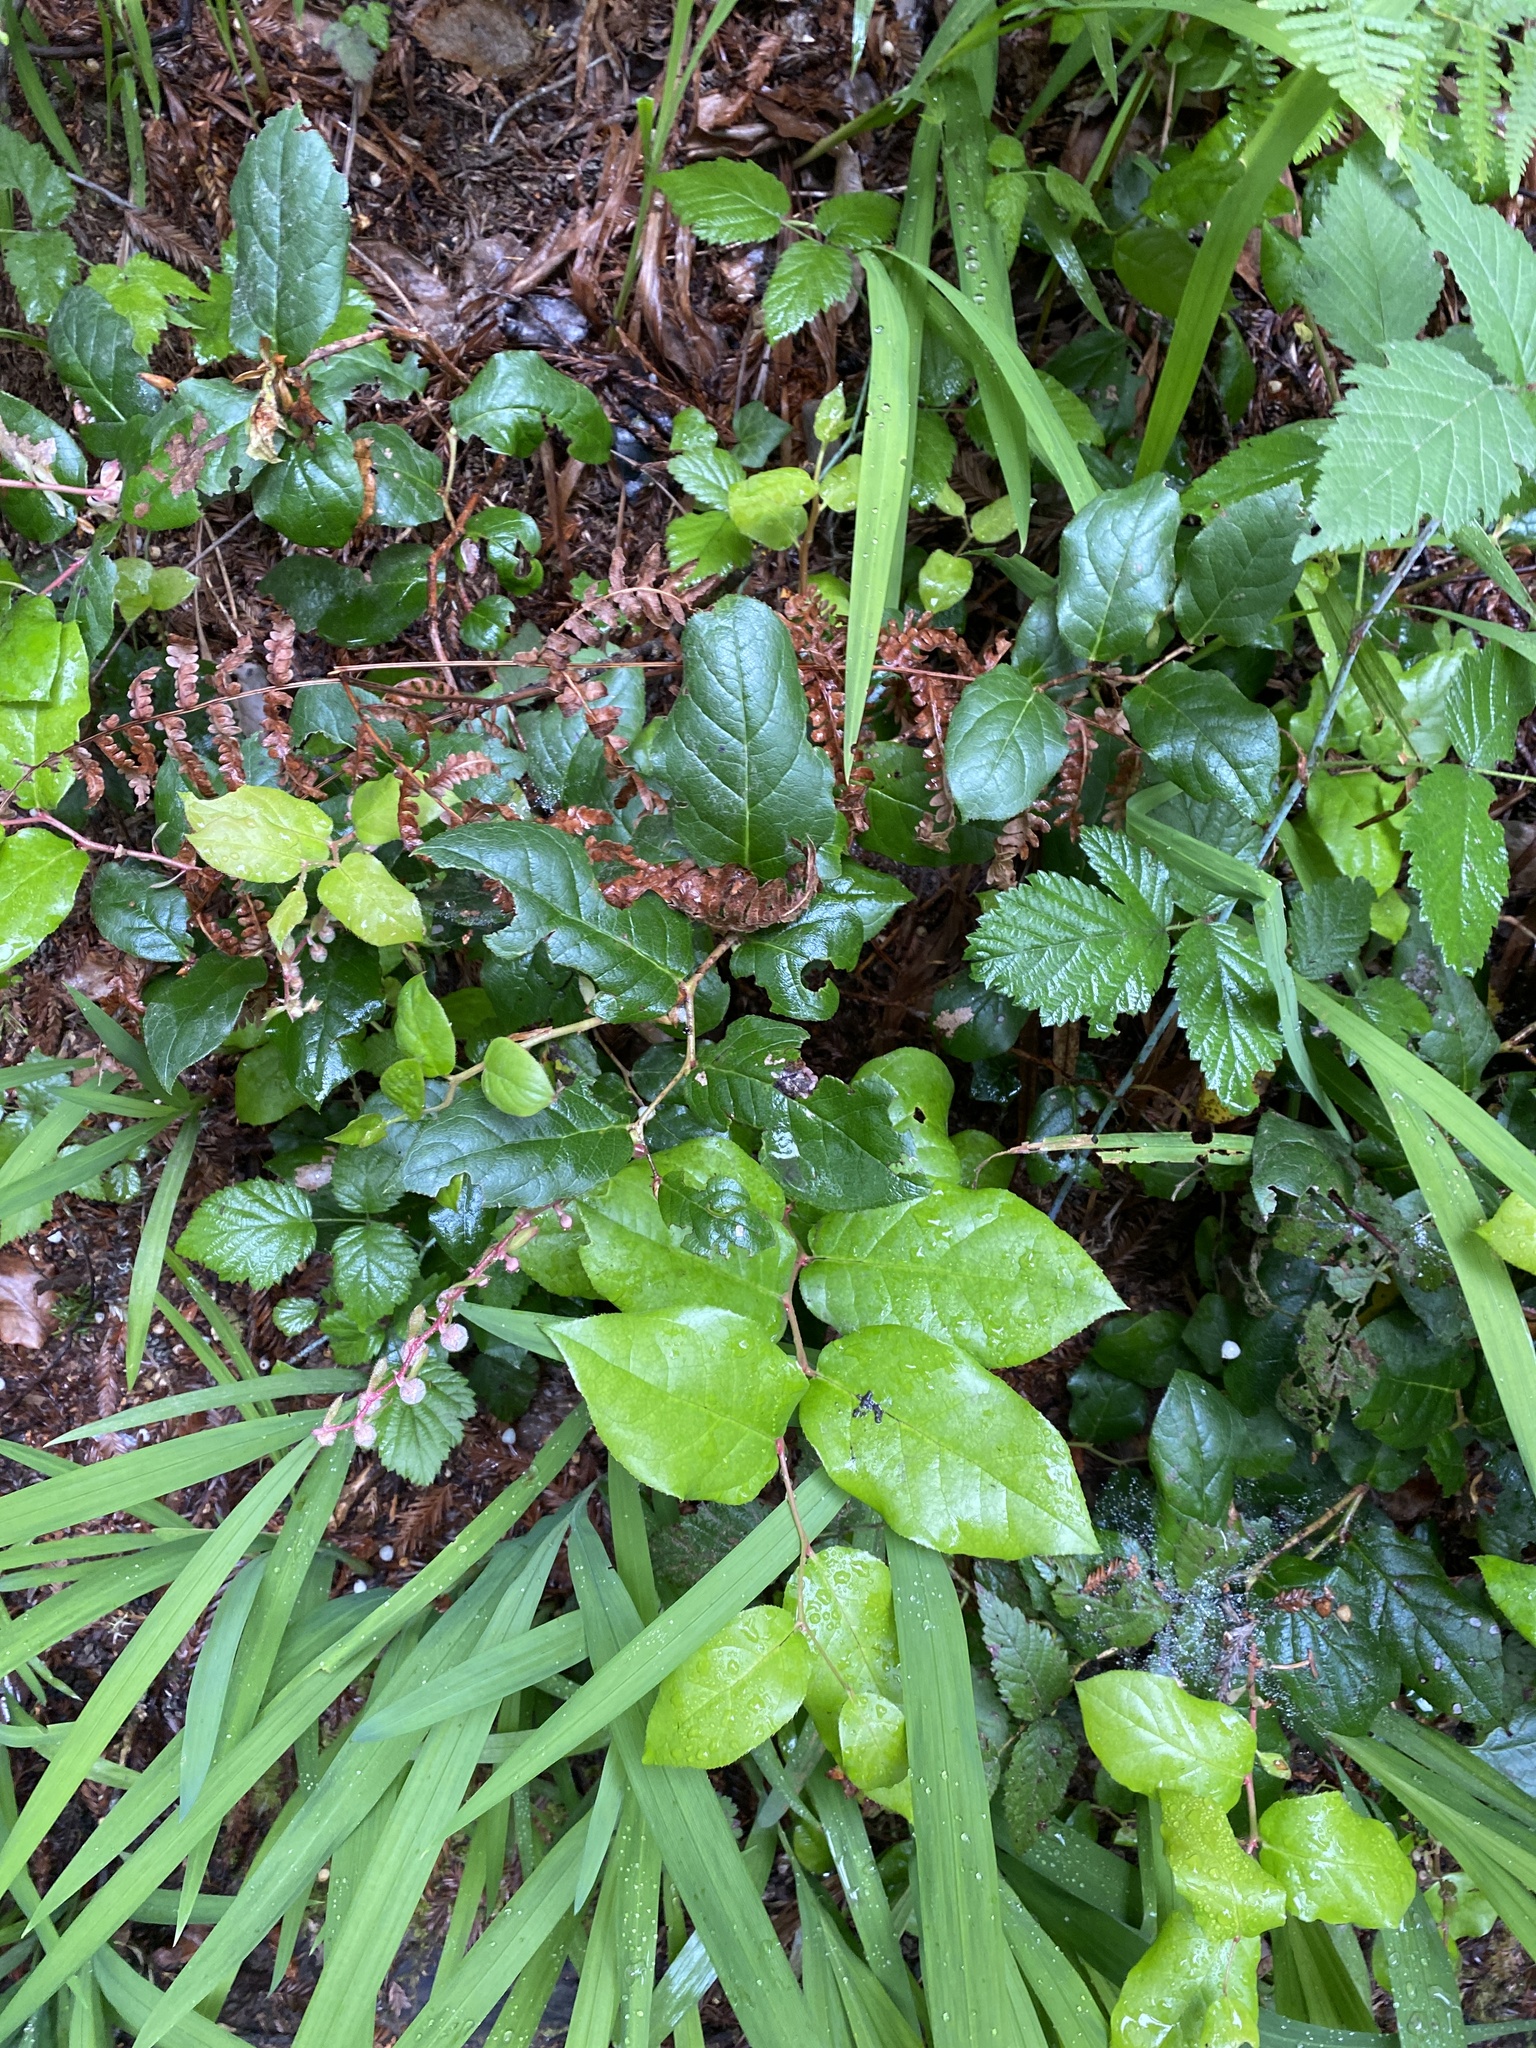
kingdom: Plantae
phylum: Tracheophyta
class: Magnoliopsida
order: Ericales
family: Ericaceae
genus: Gaultheria
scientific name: Gaultheria shallon
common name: Shallon
